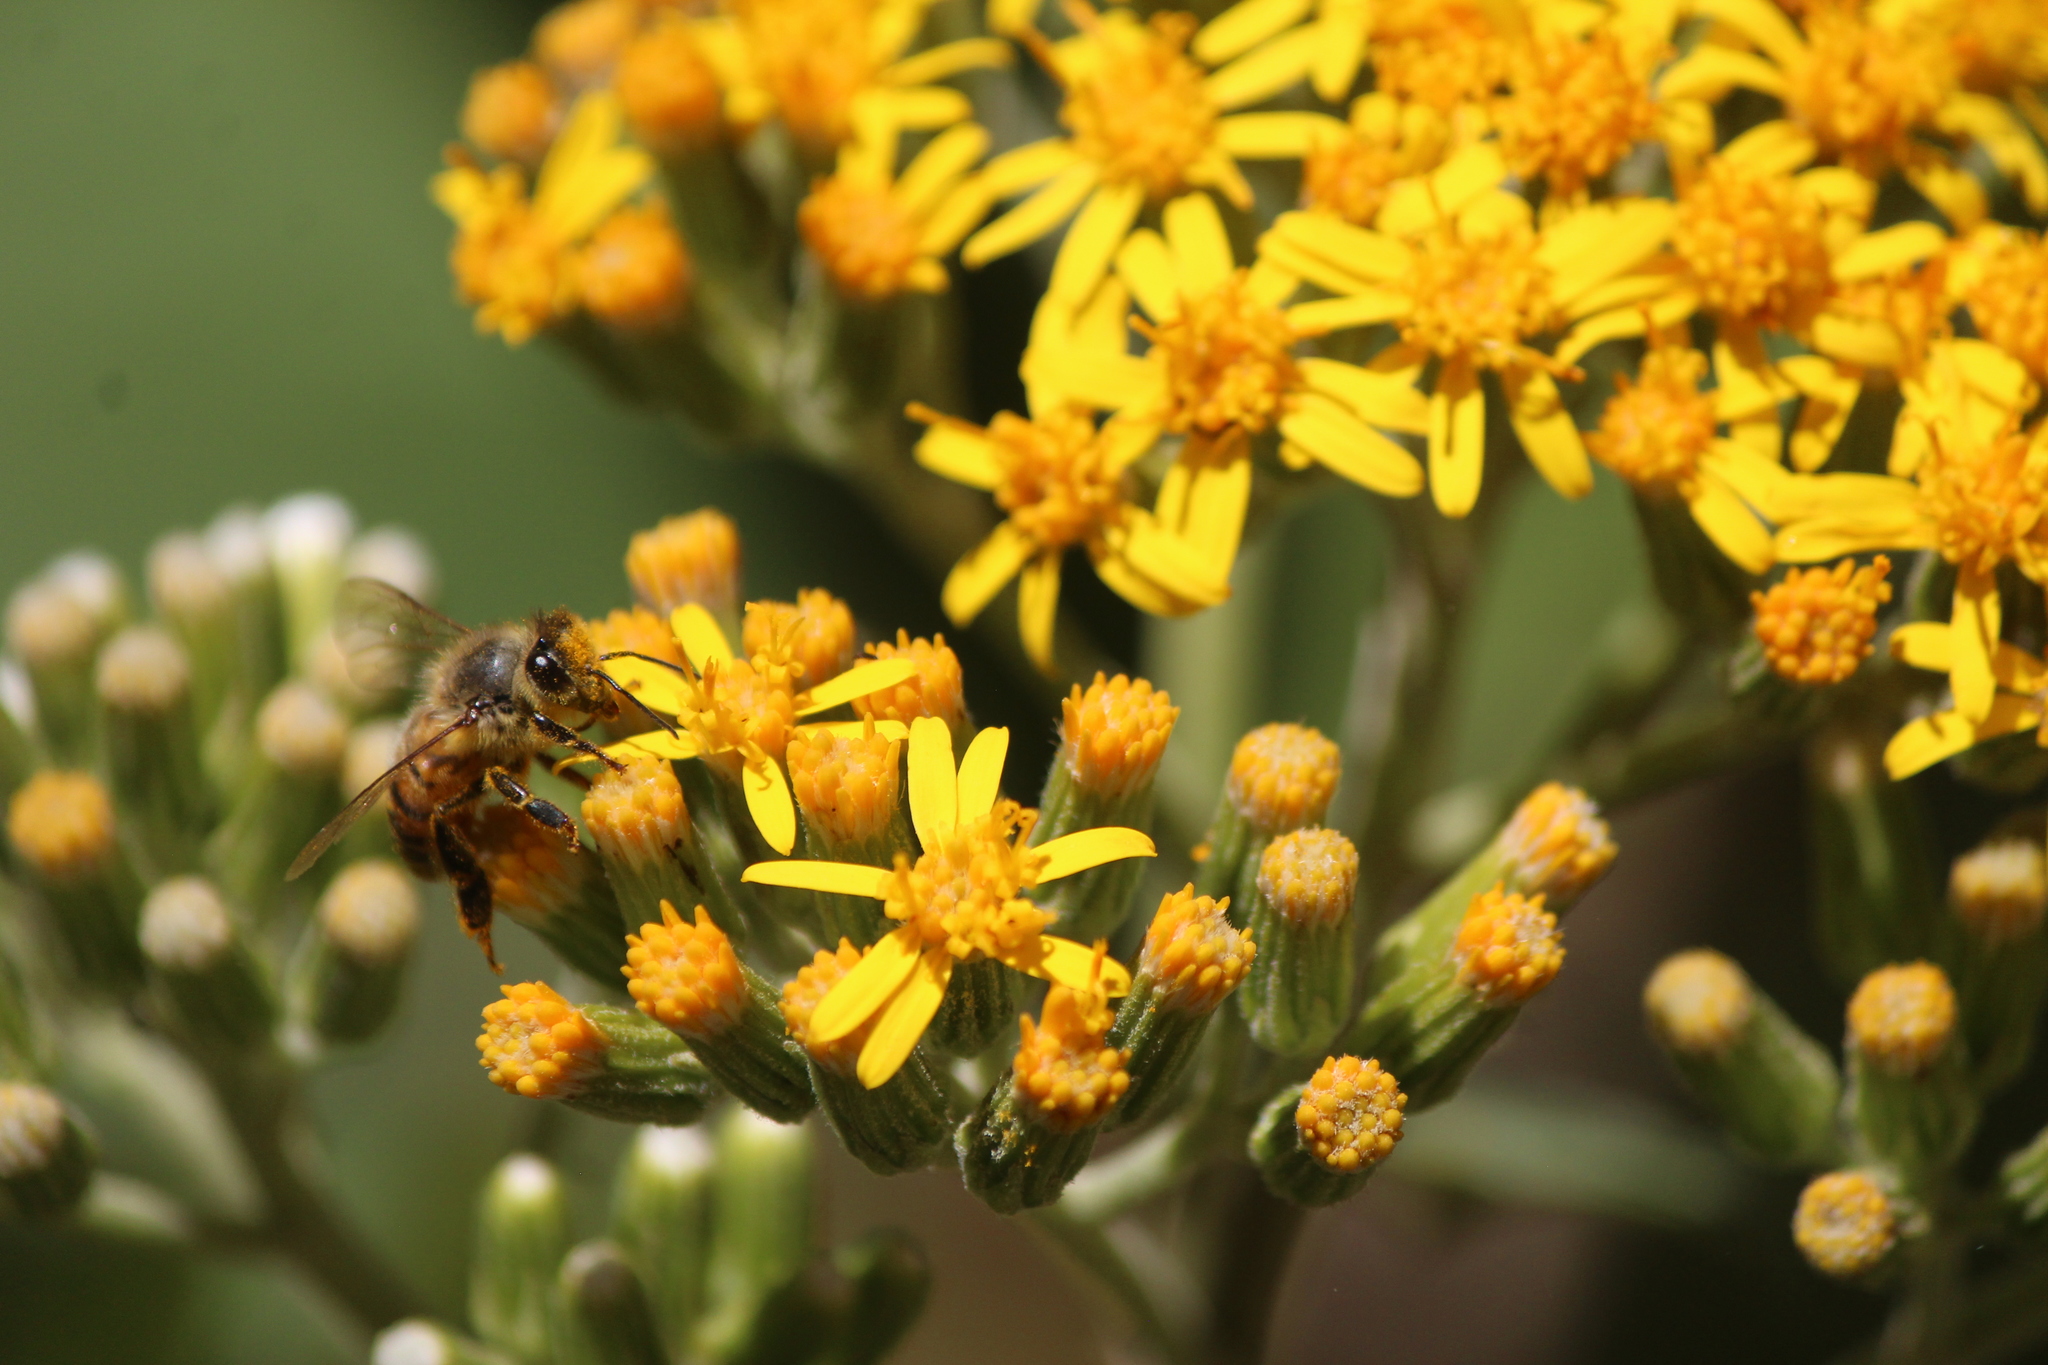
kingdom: Animalia
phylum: Arthropoda
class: Insecta
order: Hymenoptera
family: Apidae
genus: Apis
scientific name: Apis mellifera
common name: Honey bee
